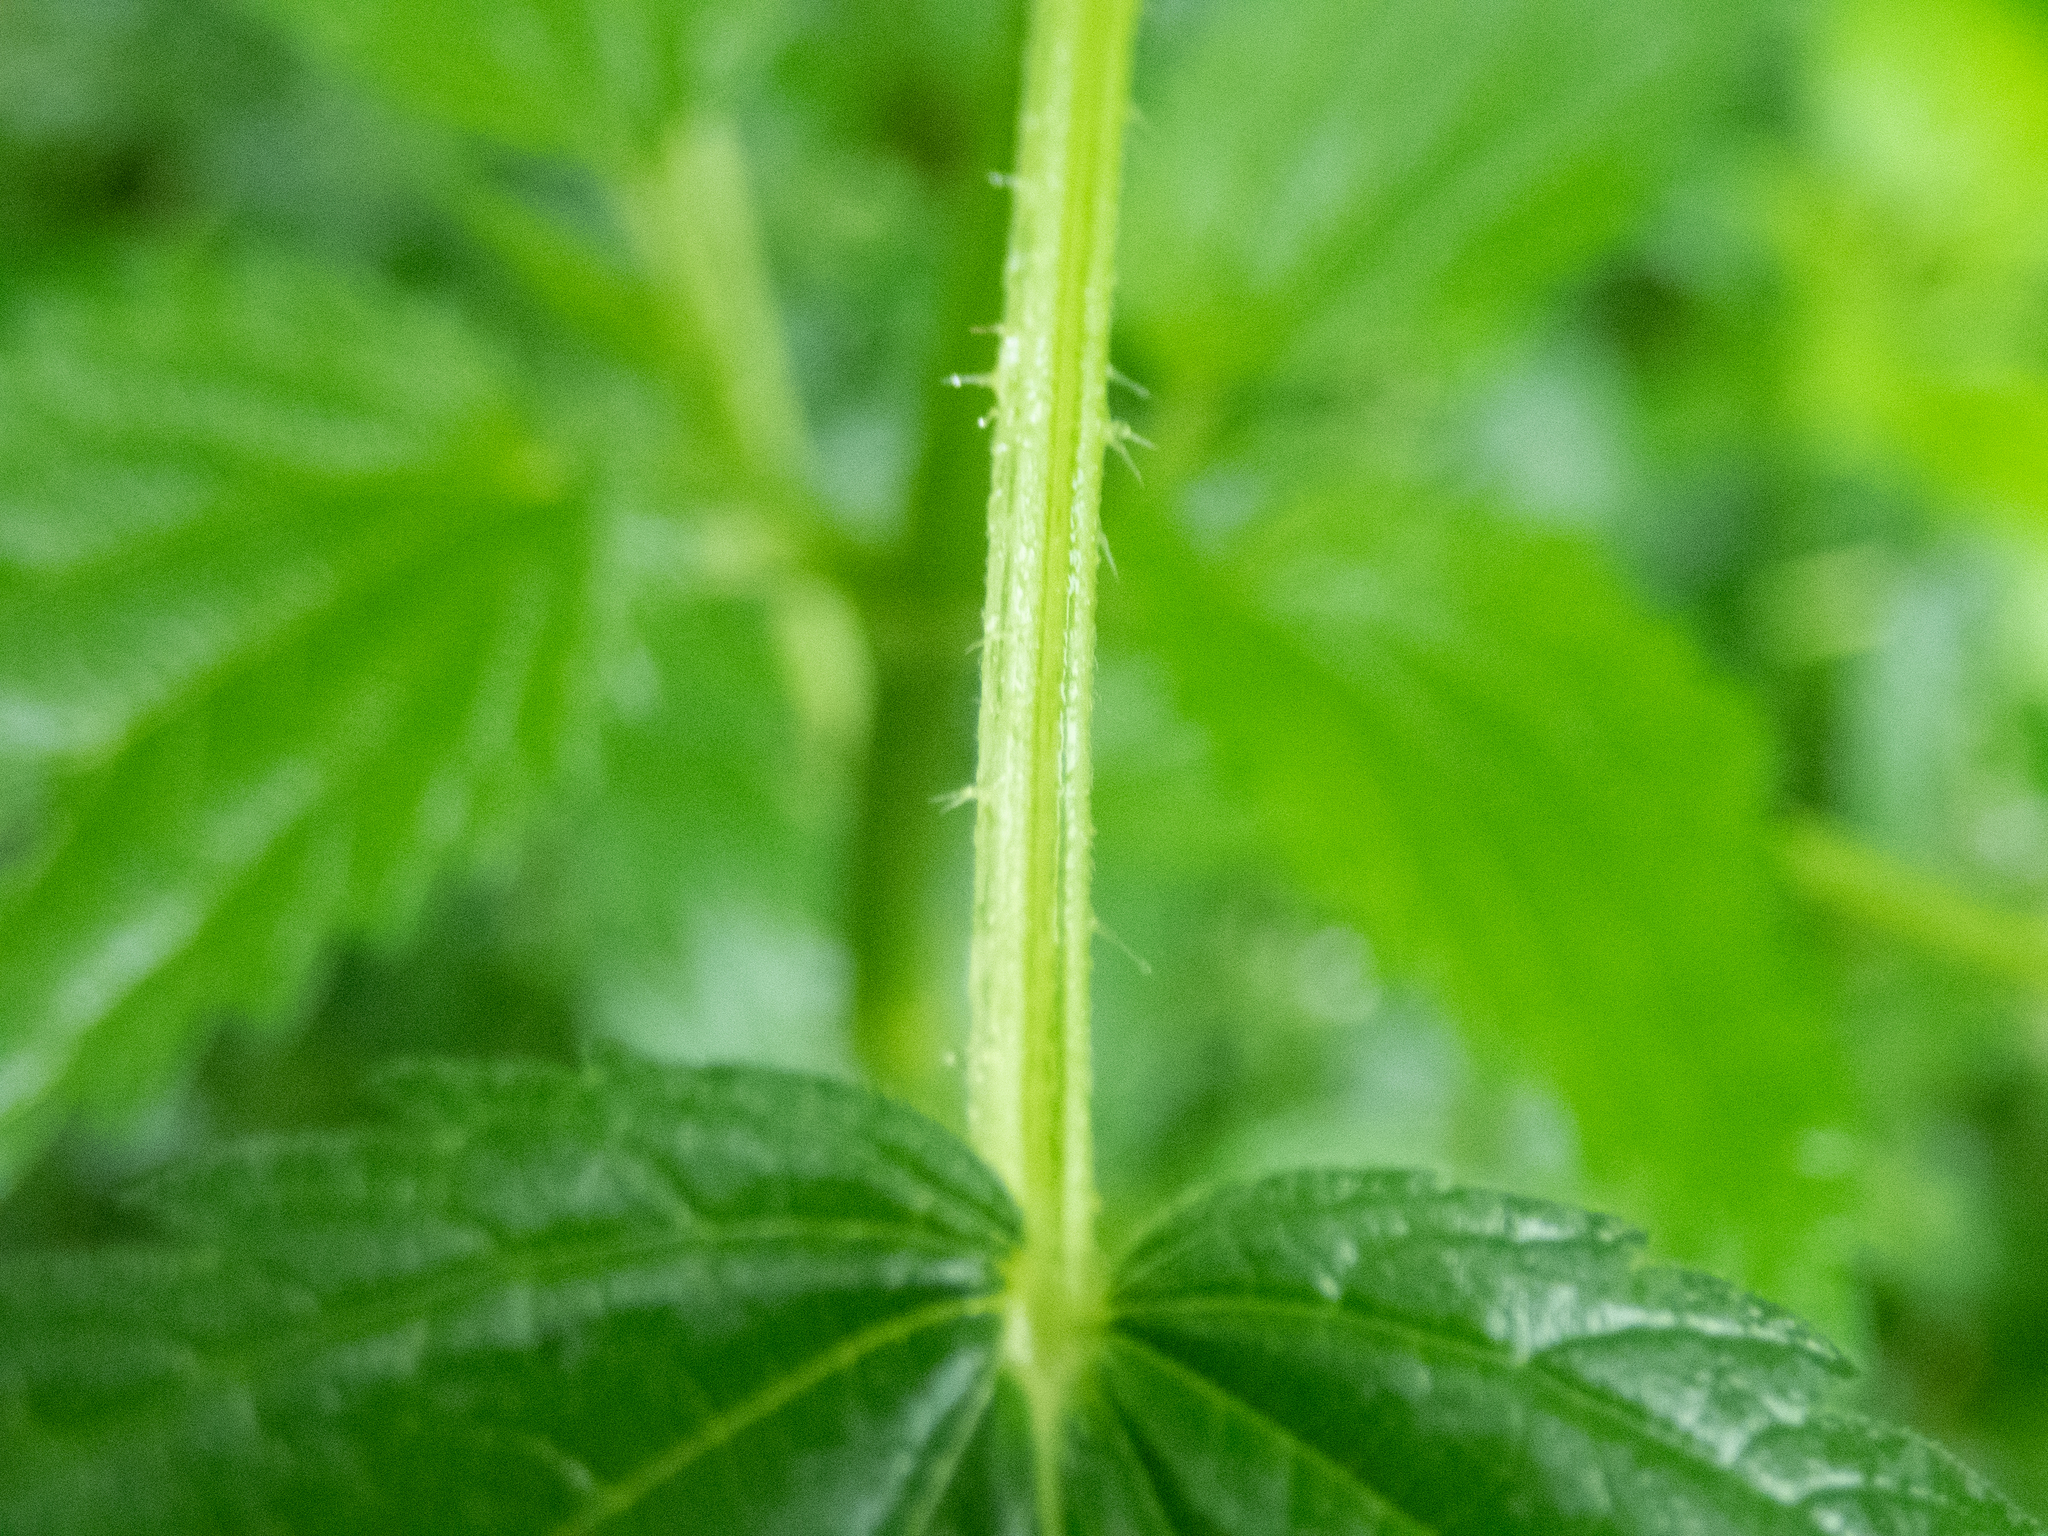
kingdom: Plantae
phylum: Tracheophyta
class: Magnoliopsida
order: Rosales
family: Urticaceae
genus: Urtica
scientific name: Urtica dioica
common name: Common nettle
